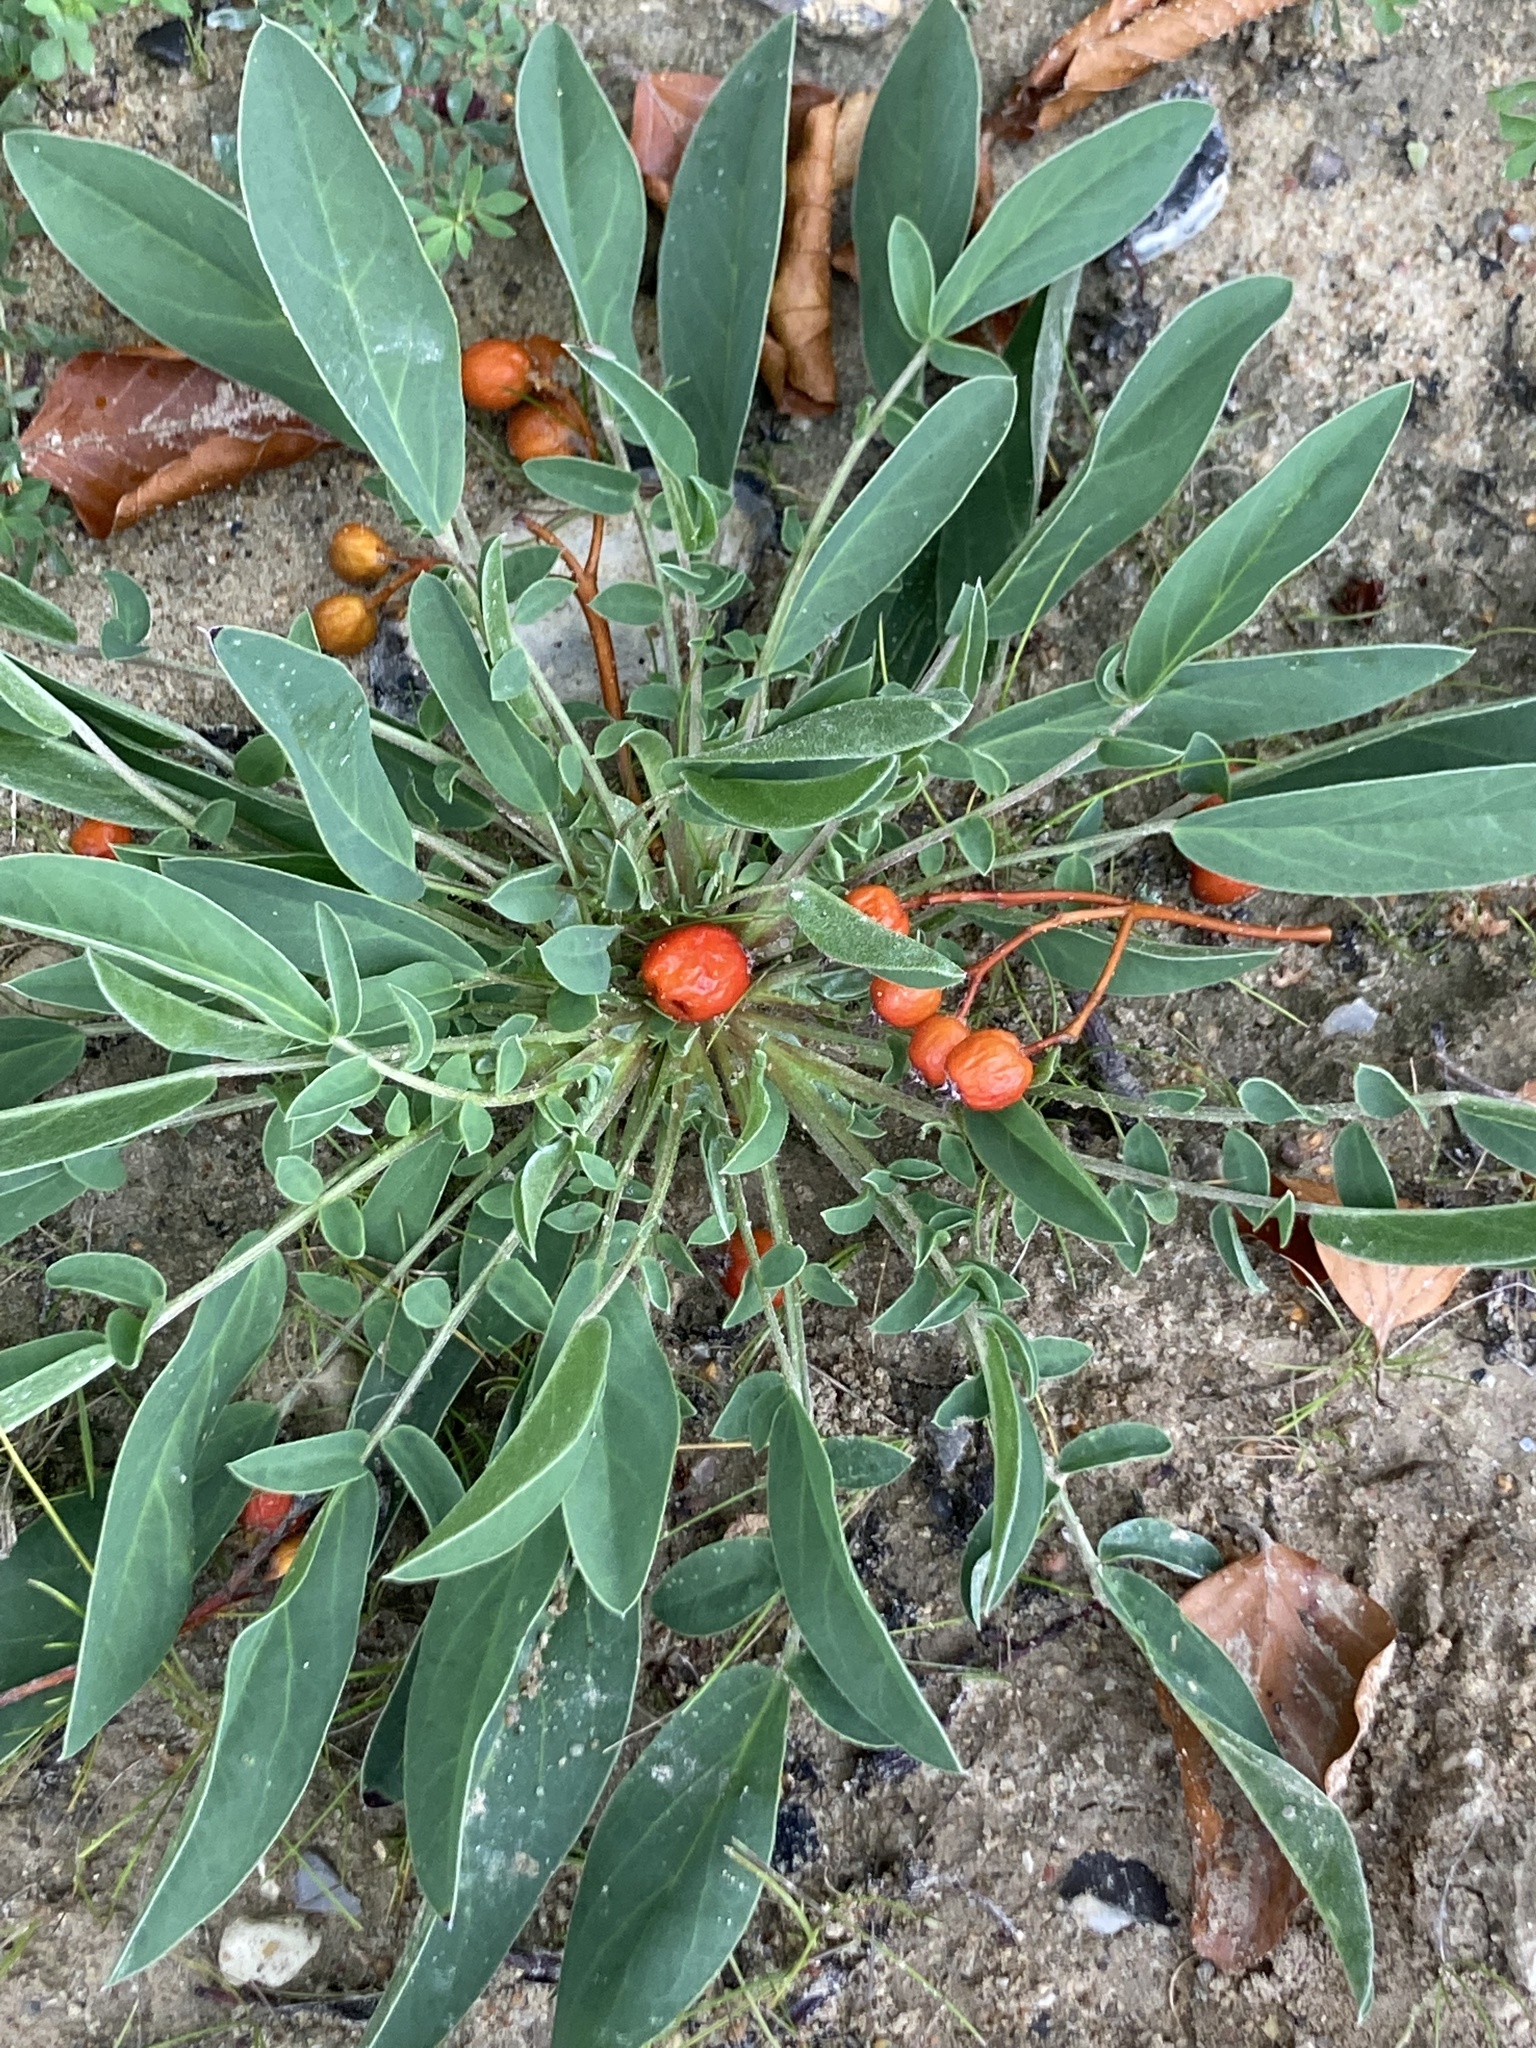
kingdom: Plantae
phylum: Tracheophyta
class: Magnoliopsida
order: Fabales
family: Fabaceae
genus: Anthyllis
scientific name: Anthyllis vulneraria
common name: Kidney vetch
